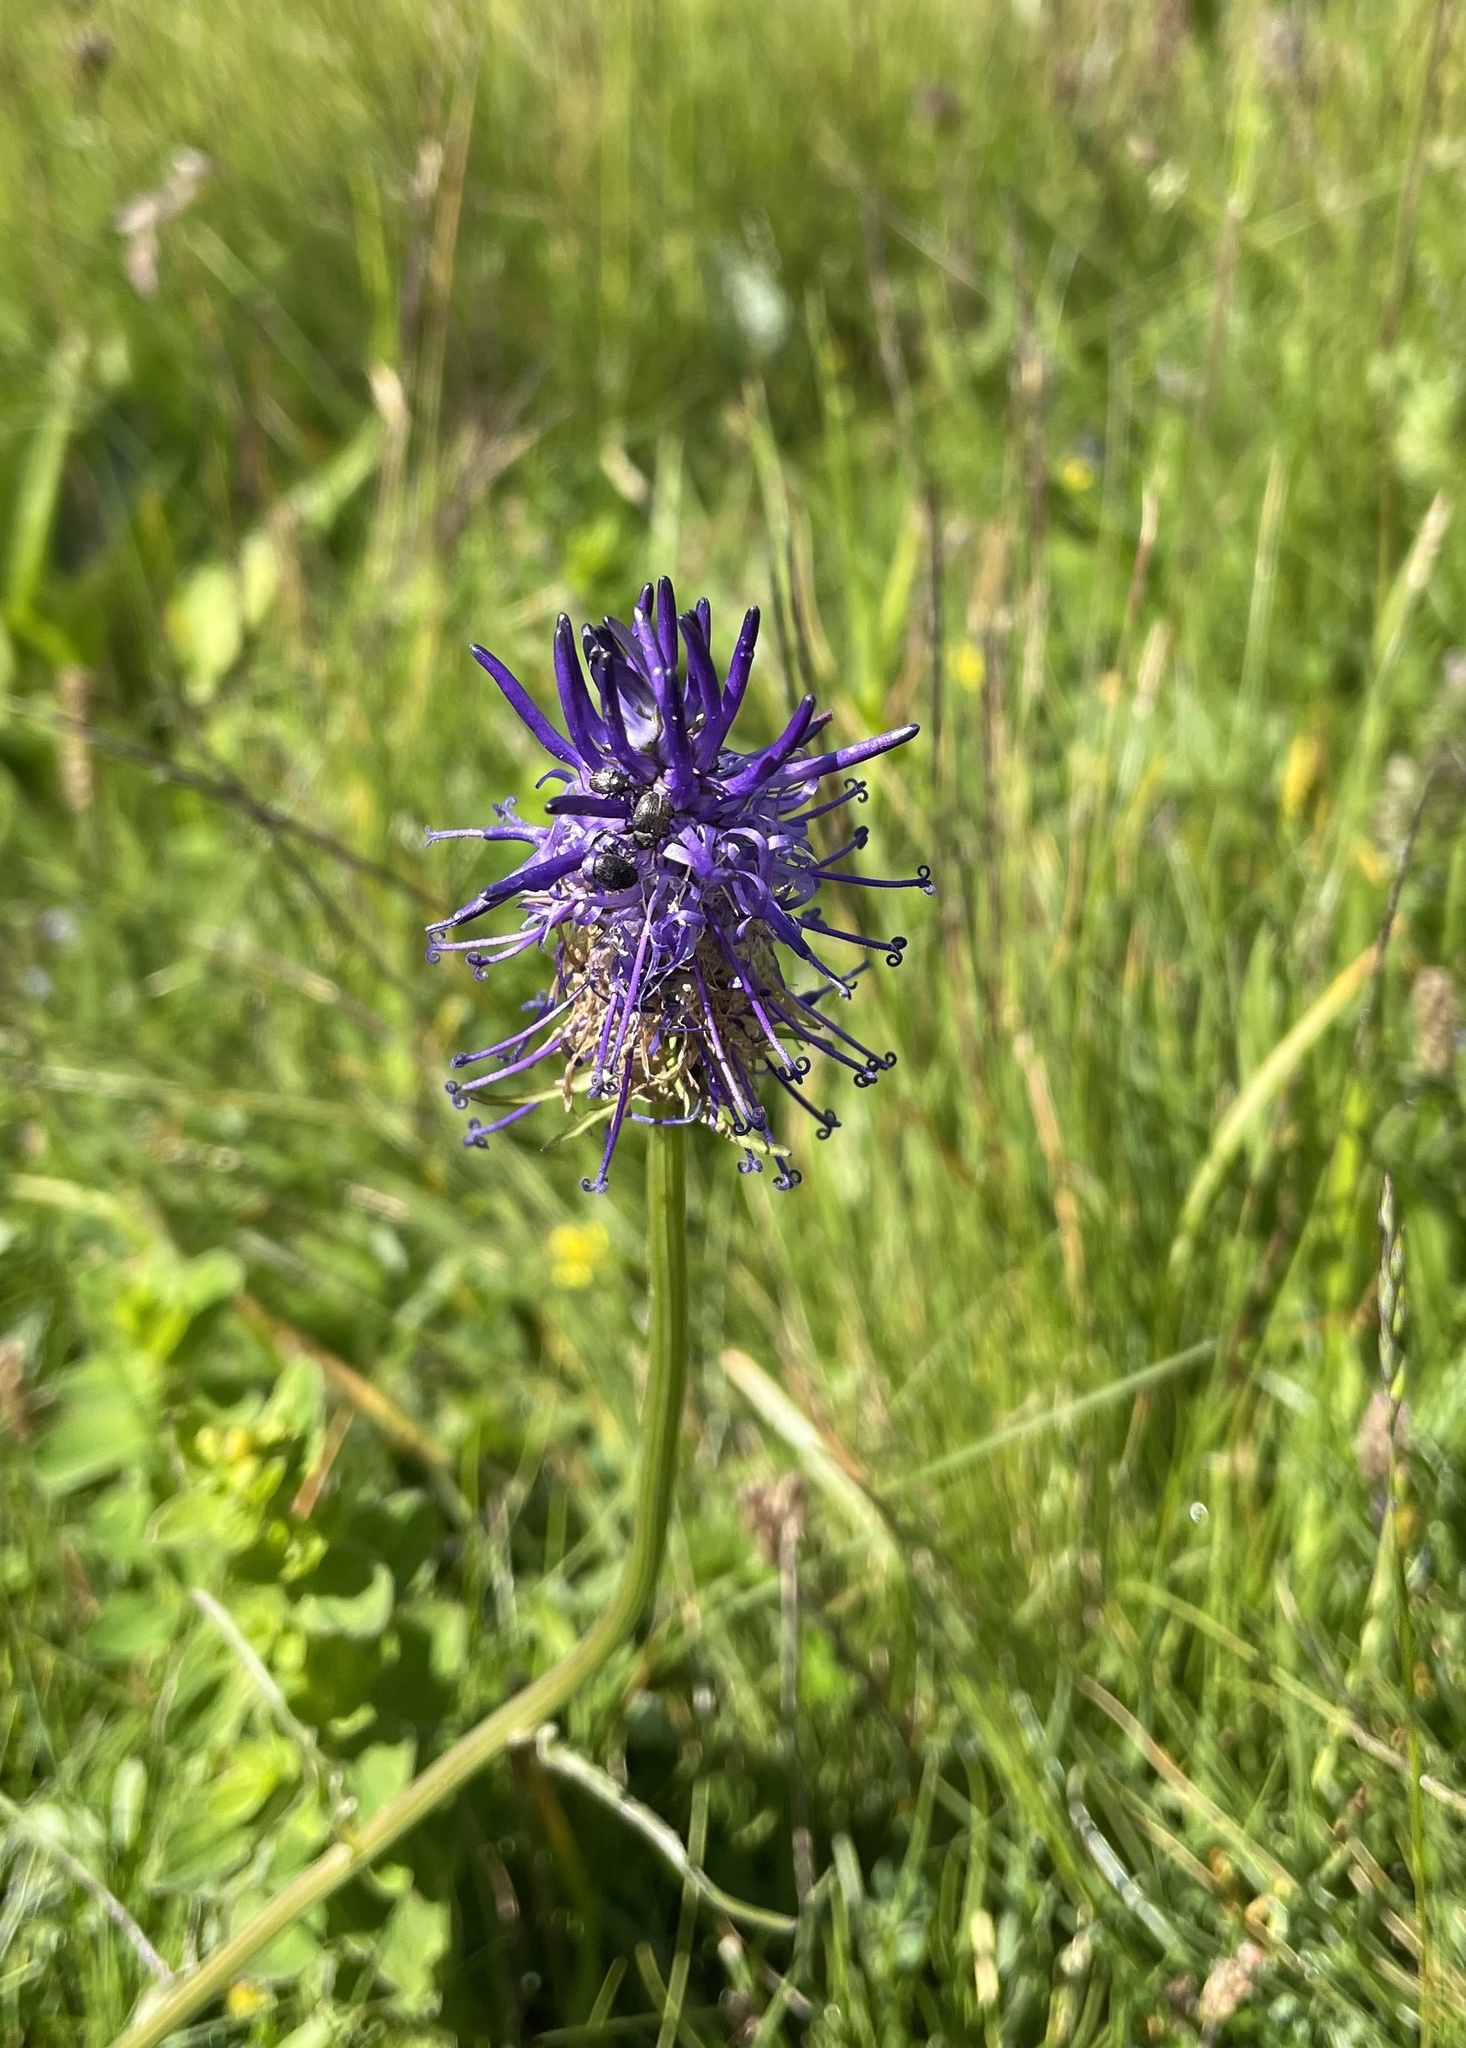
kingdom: Plantae
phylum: Tracheophyta
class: Magnoliopsida
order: Asterales
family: Campanulaceae
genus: Phyteuma
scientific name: Phyteuma betonicifolium
